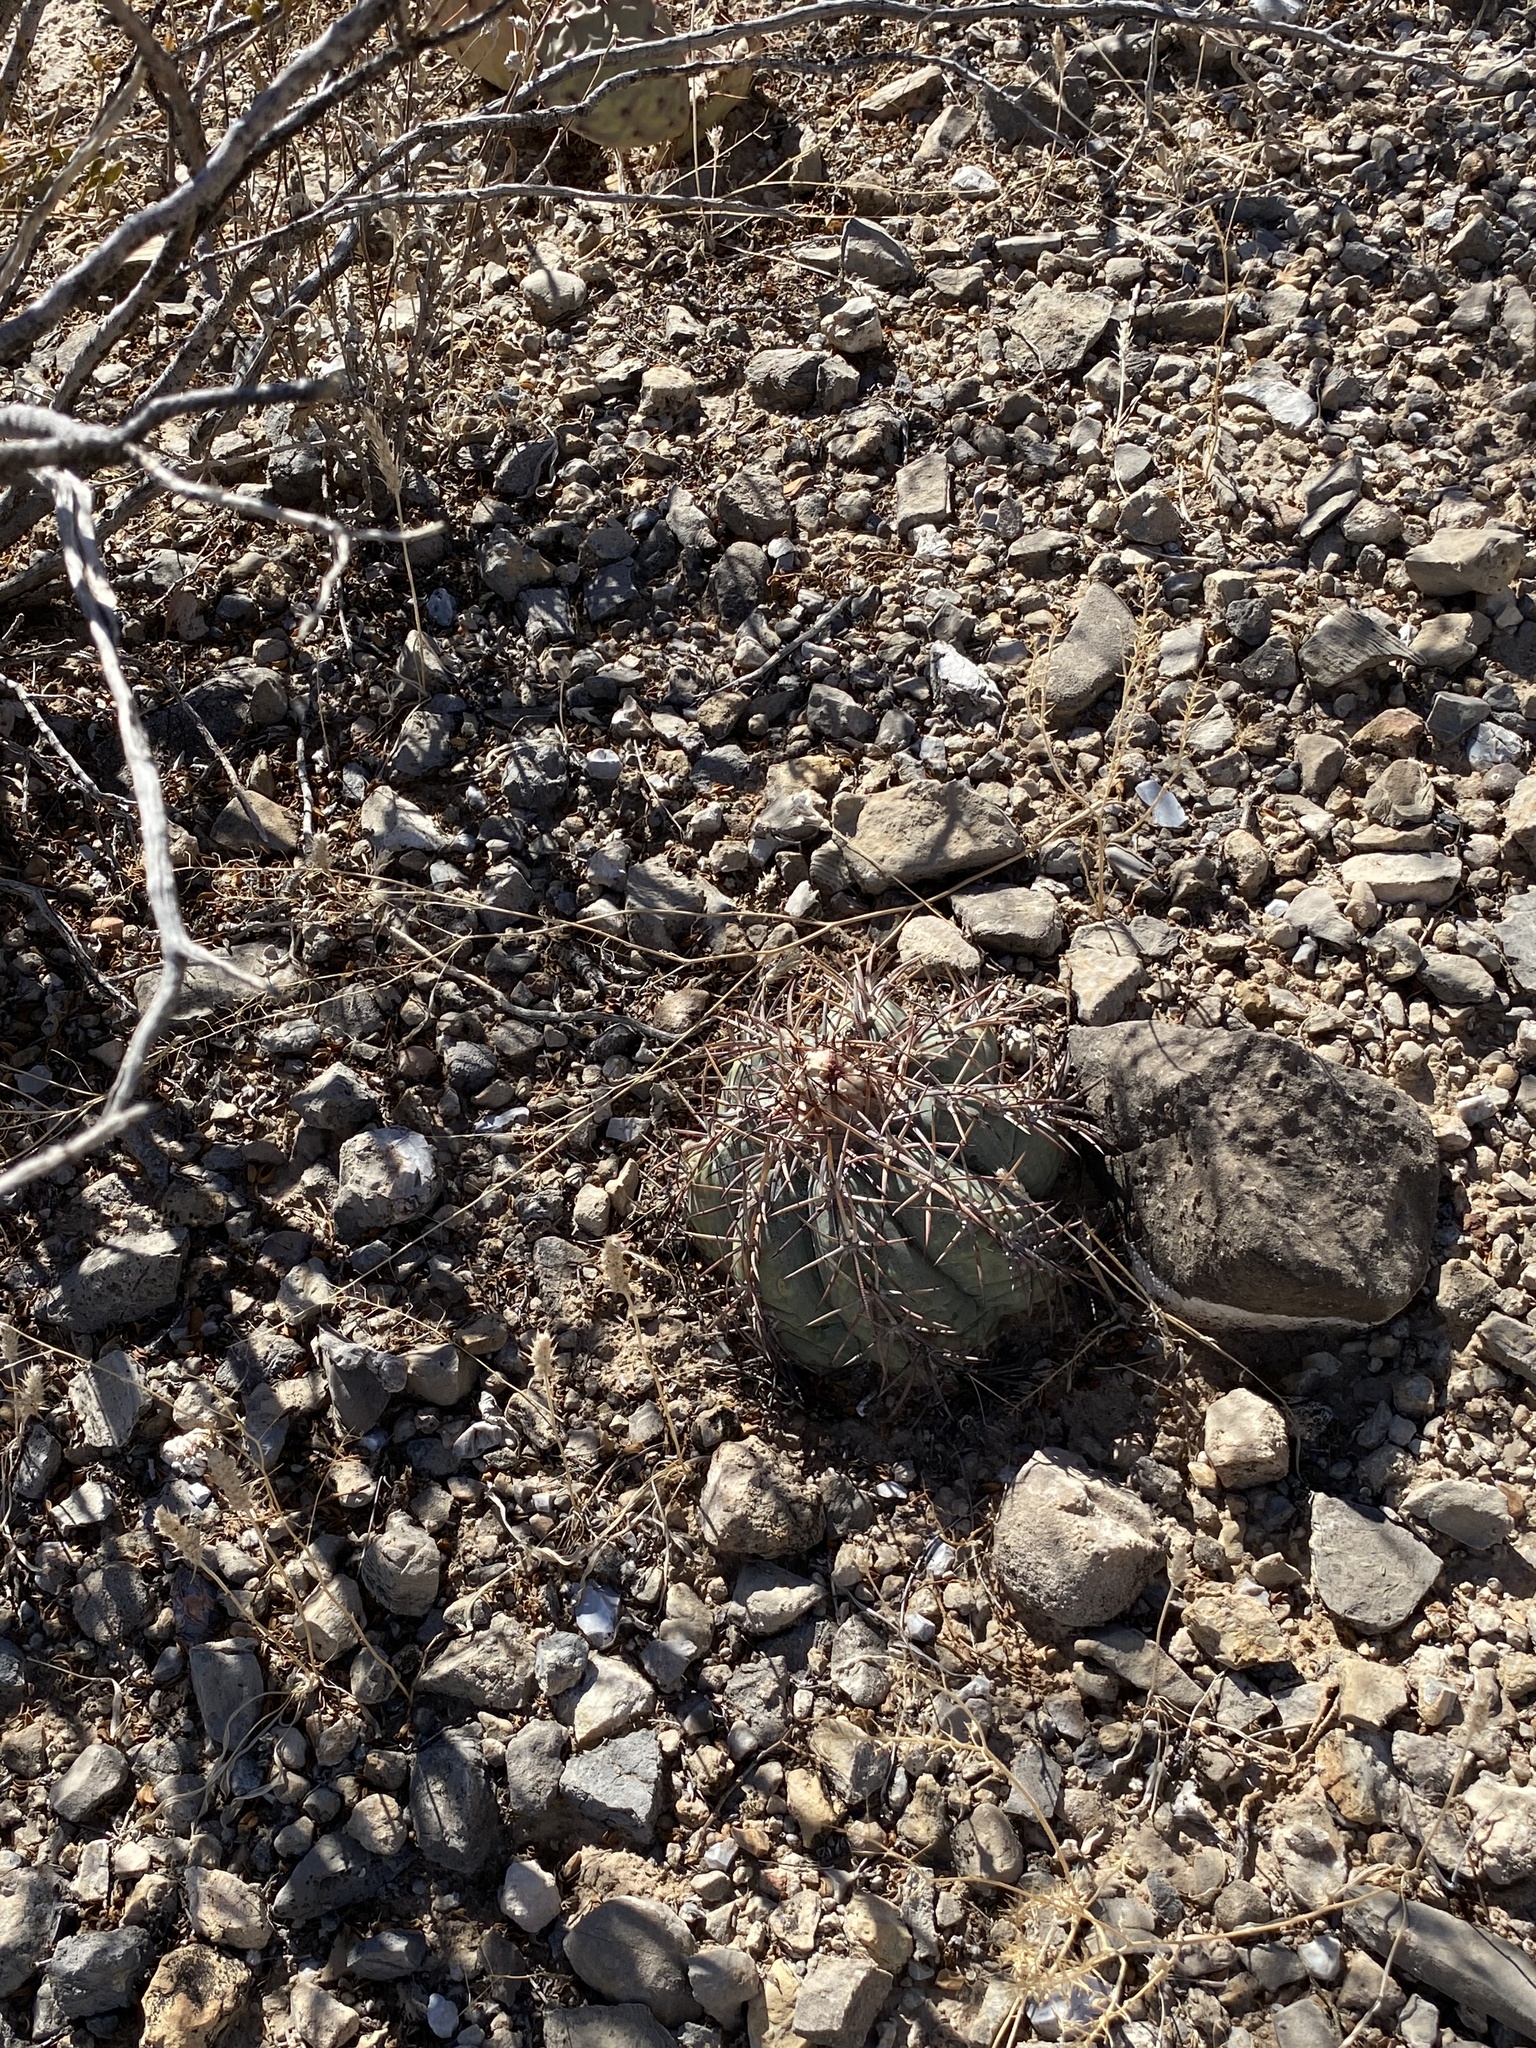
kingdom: Plantae
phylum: Tracheophyta
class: Magnoliopsida
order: Caryophyllales
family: Cactaceae
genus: Echinocactus
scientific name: Echinocactus horizonthalonius
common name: Devilshead
